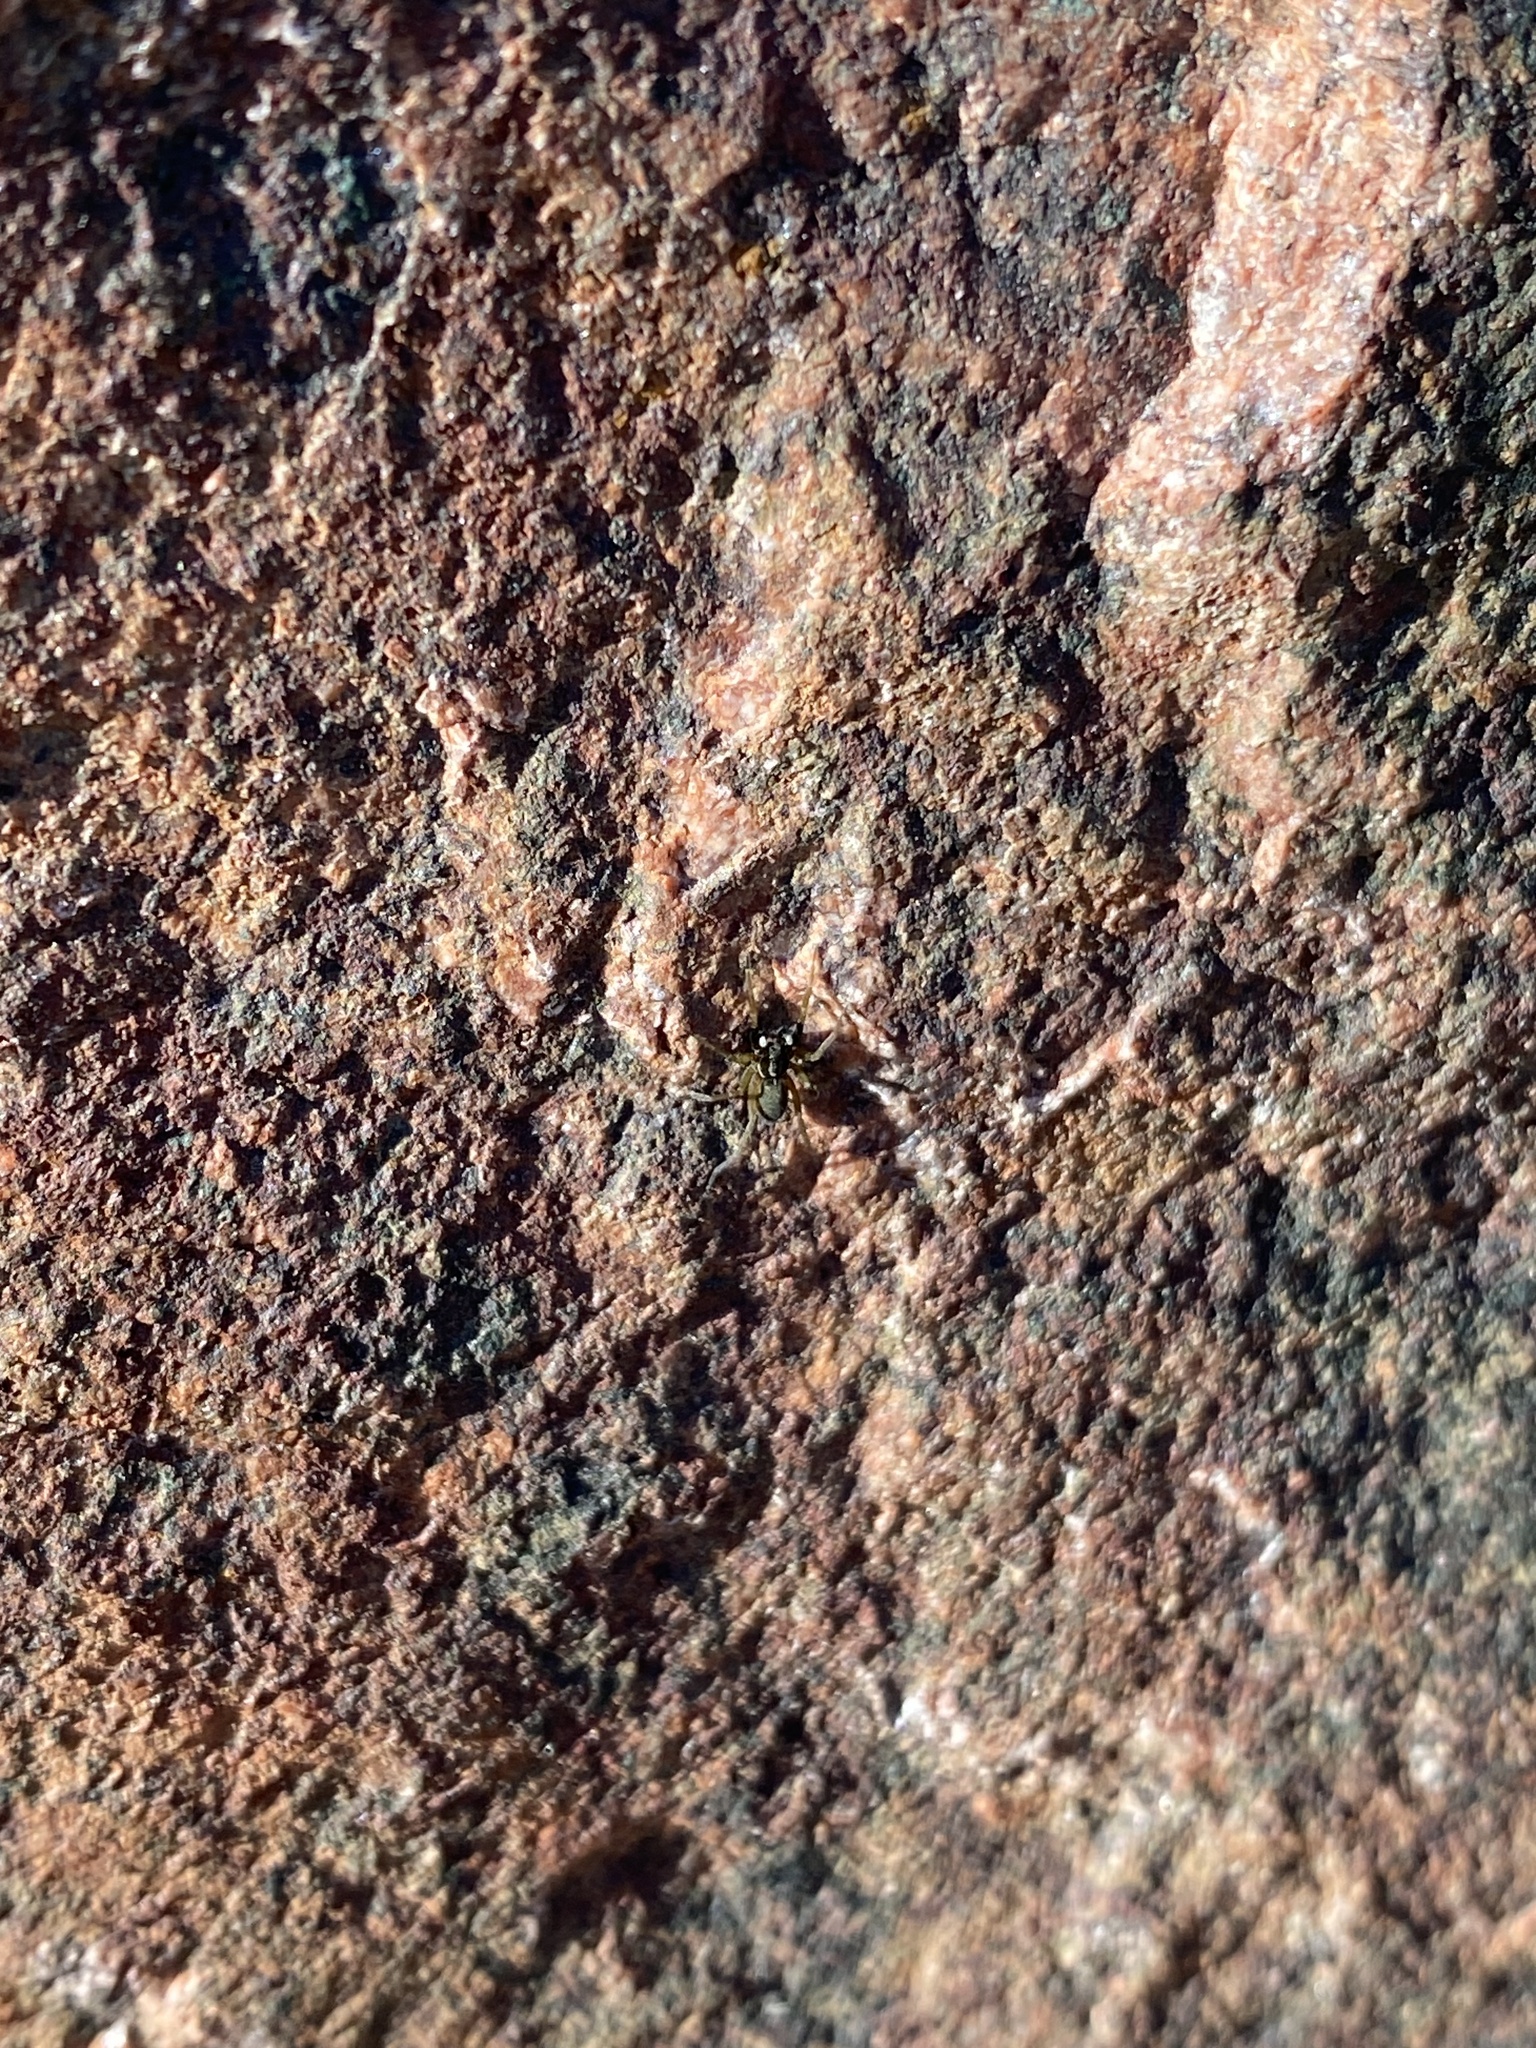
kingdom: Animalia
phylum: Arthropoda
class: Arachnida
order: Araneae
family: Lycosidae
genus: Aulonia
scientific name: Aulonia albimana
